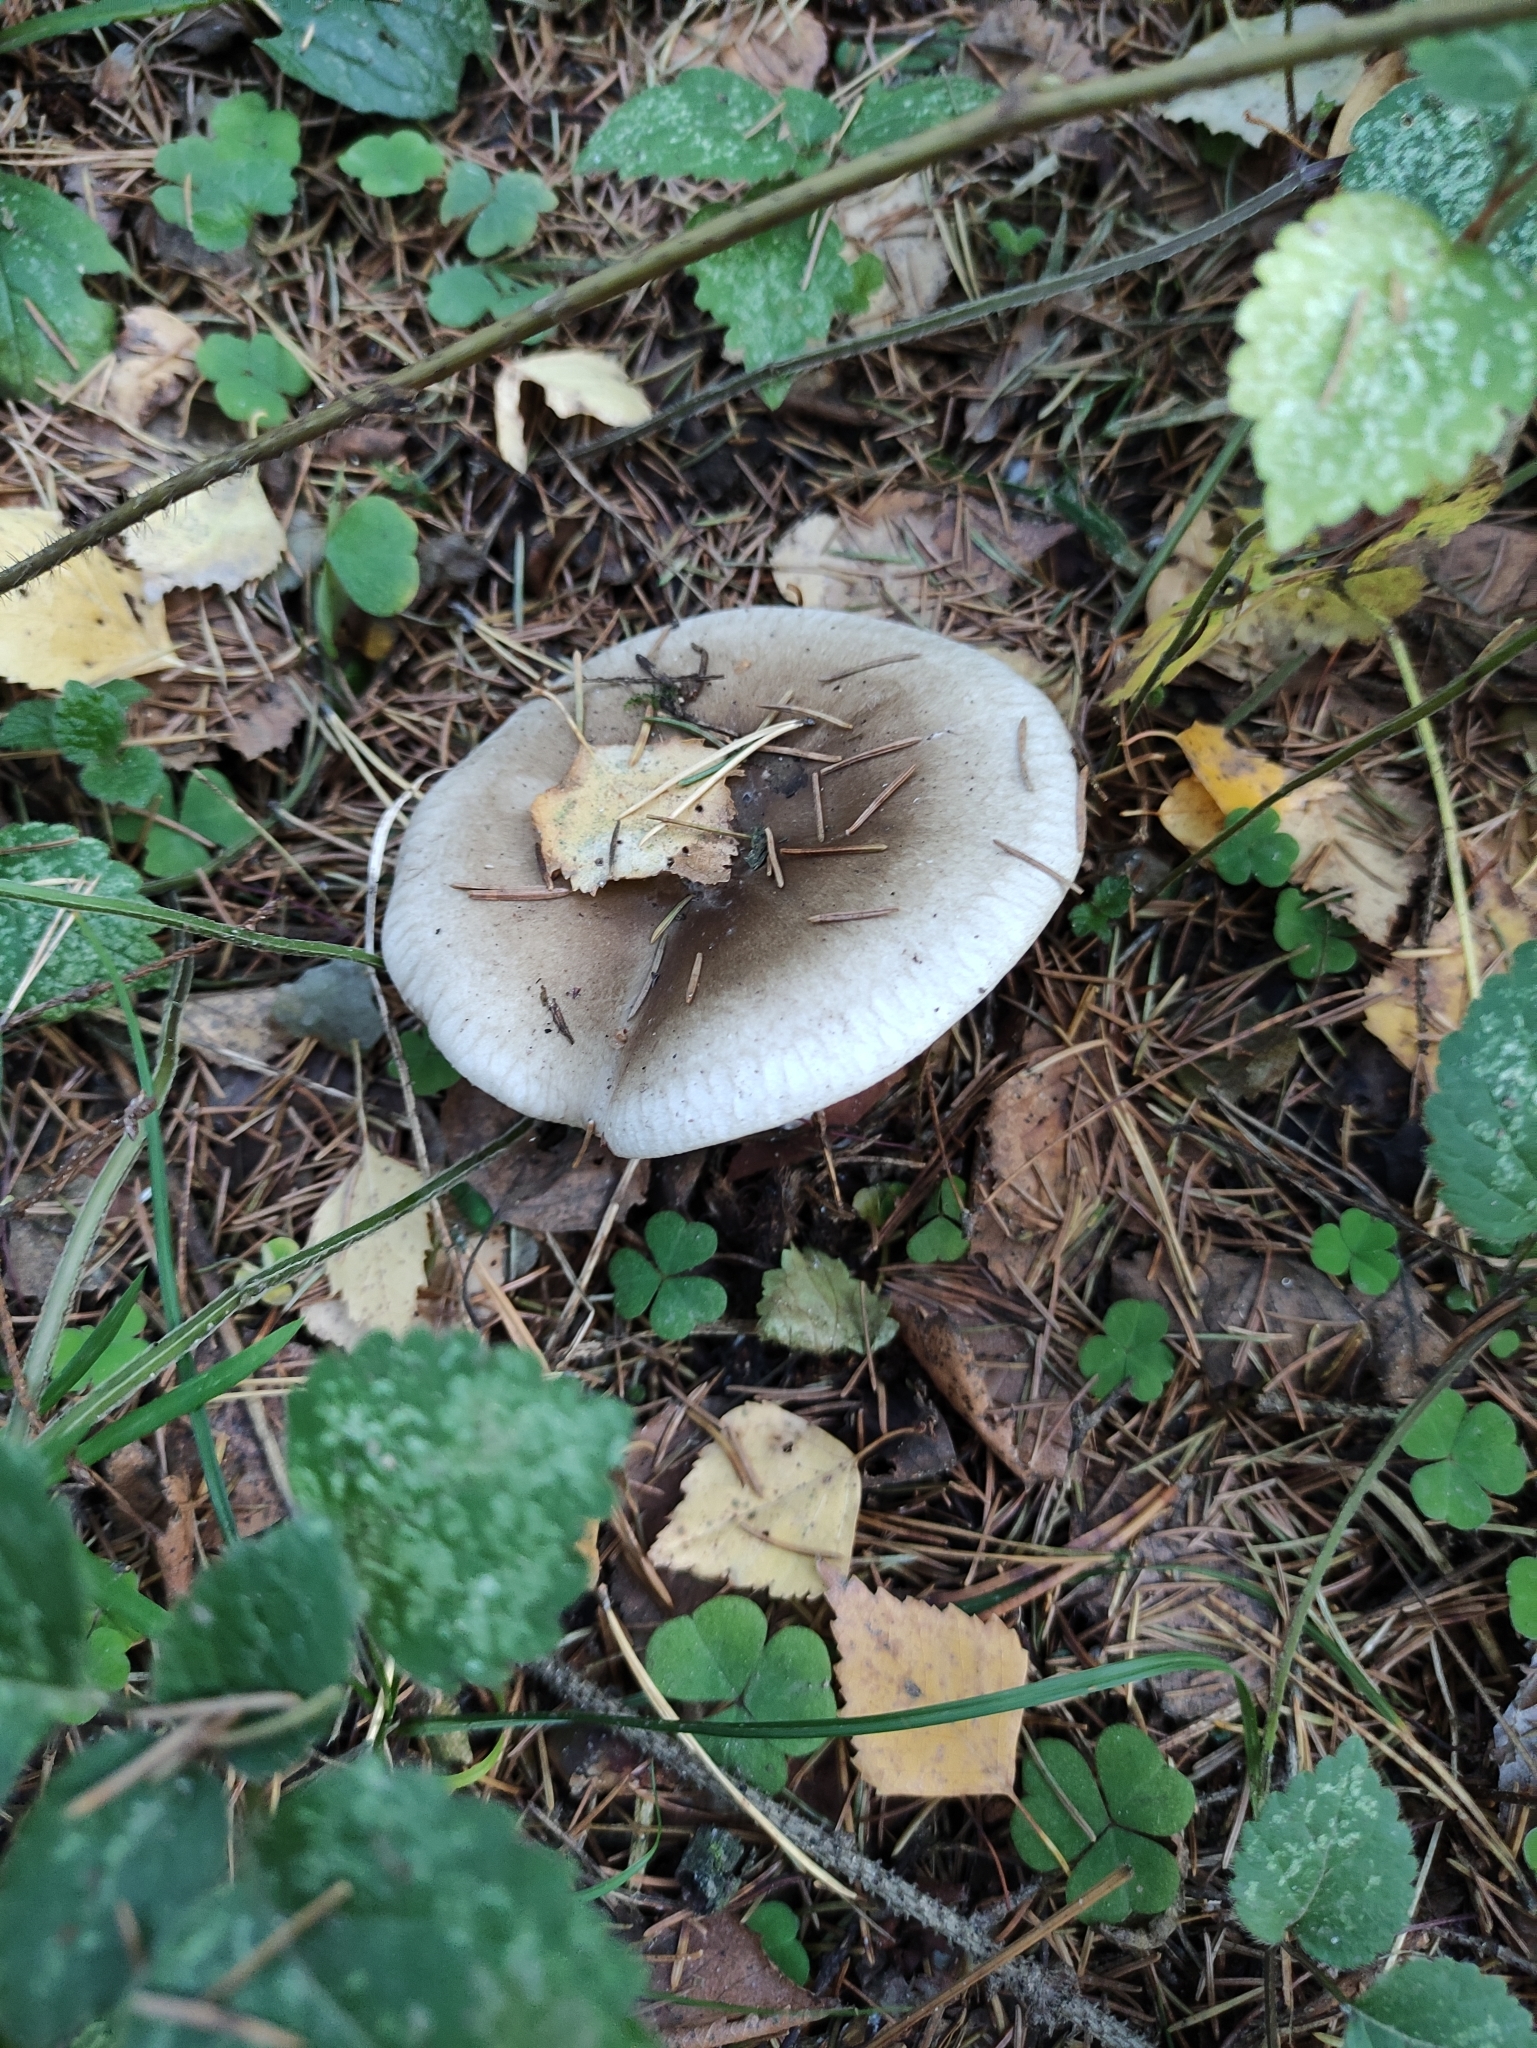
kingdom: Fungi
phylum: Basidiomycota
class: Agaricomycetes
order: Agaricales
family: Tricholomataceae
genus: Clitocybe
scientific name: Clitocybe nebularis
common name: Clouded agaric
